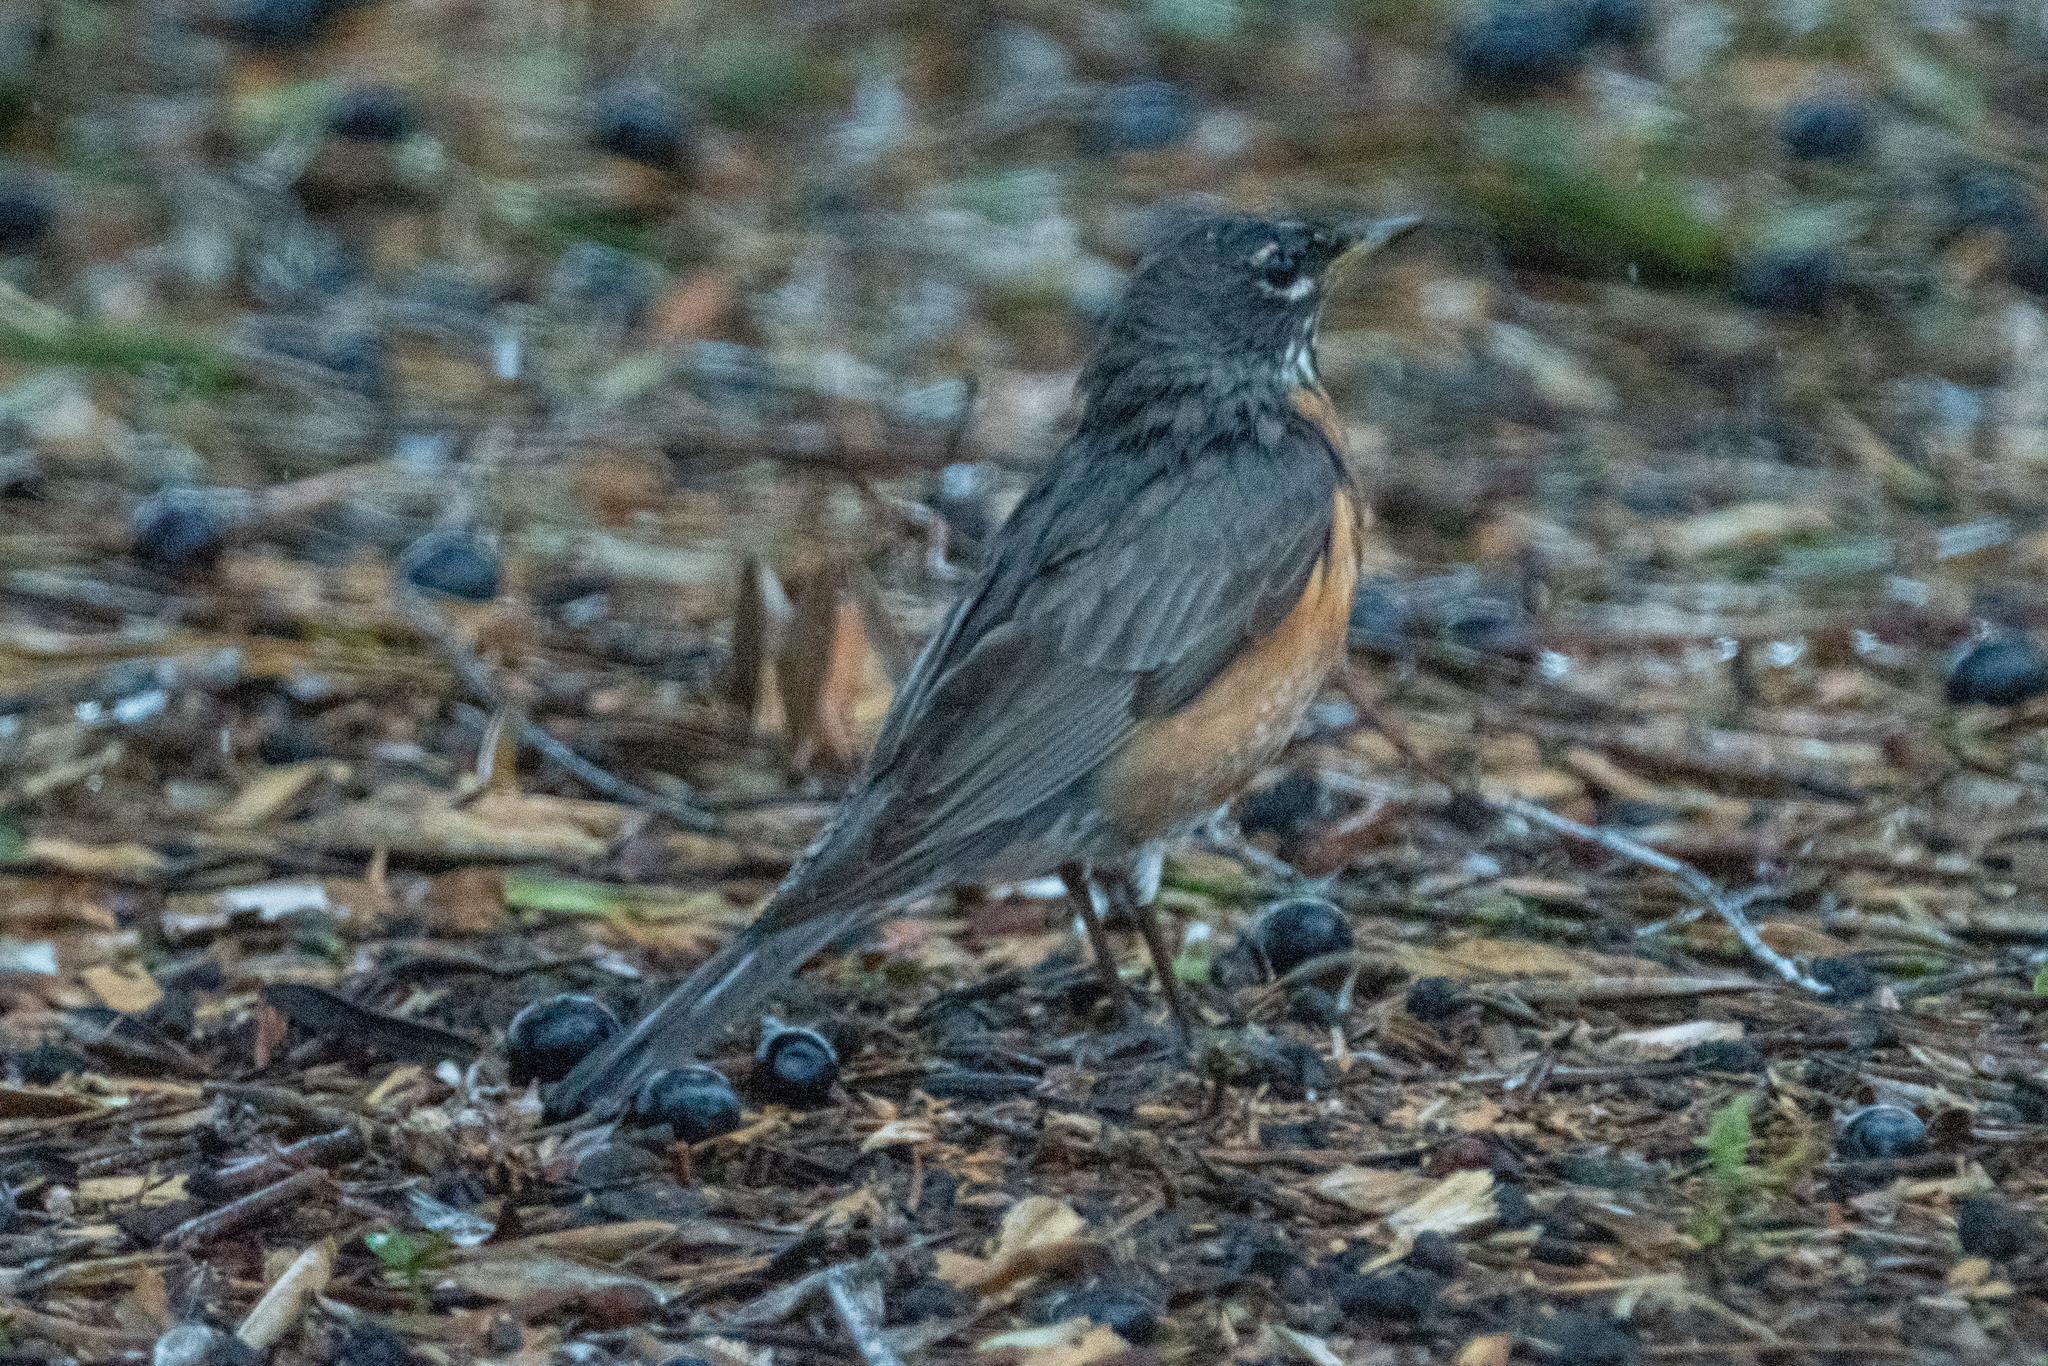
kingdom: Animalia
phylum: Chordata
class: Aves
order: Passeriformes
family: Turdidae
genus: Turdus
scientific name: Turdus migratorius
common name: American robin
